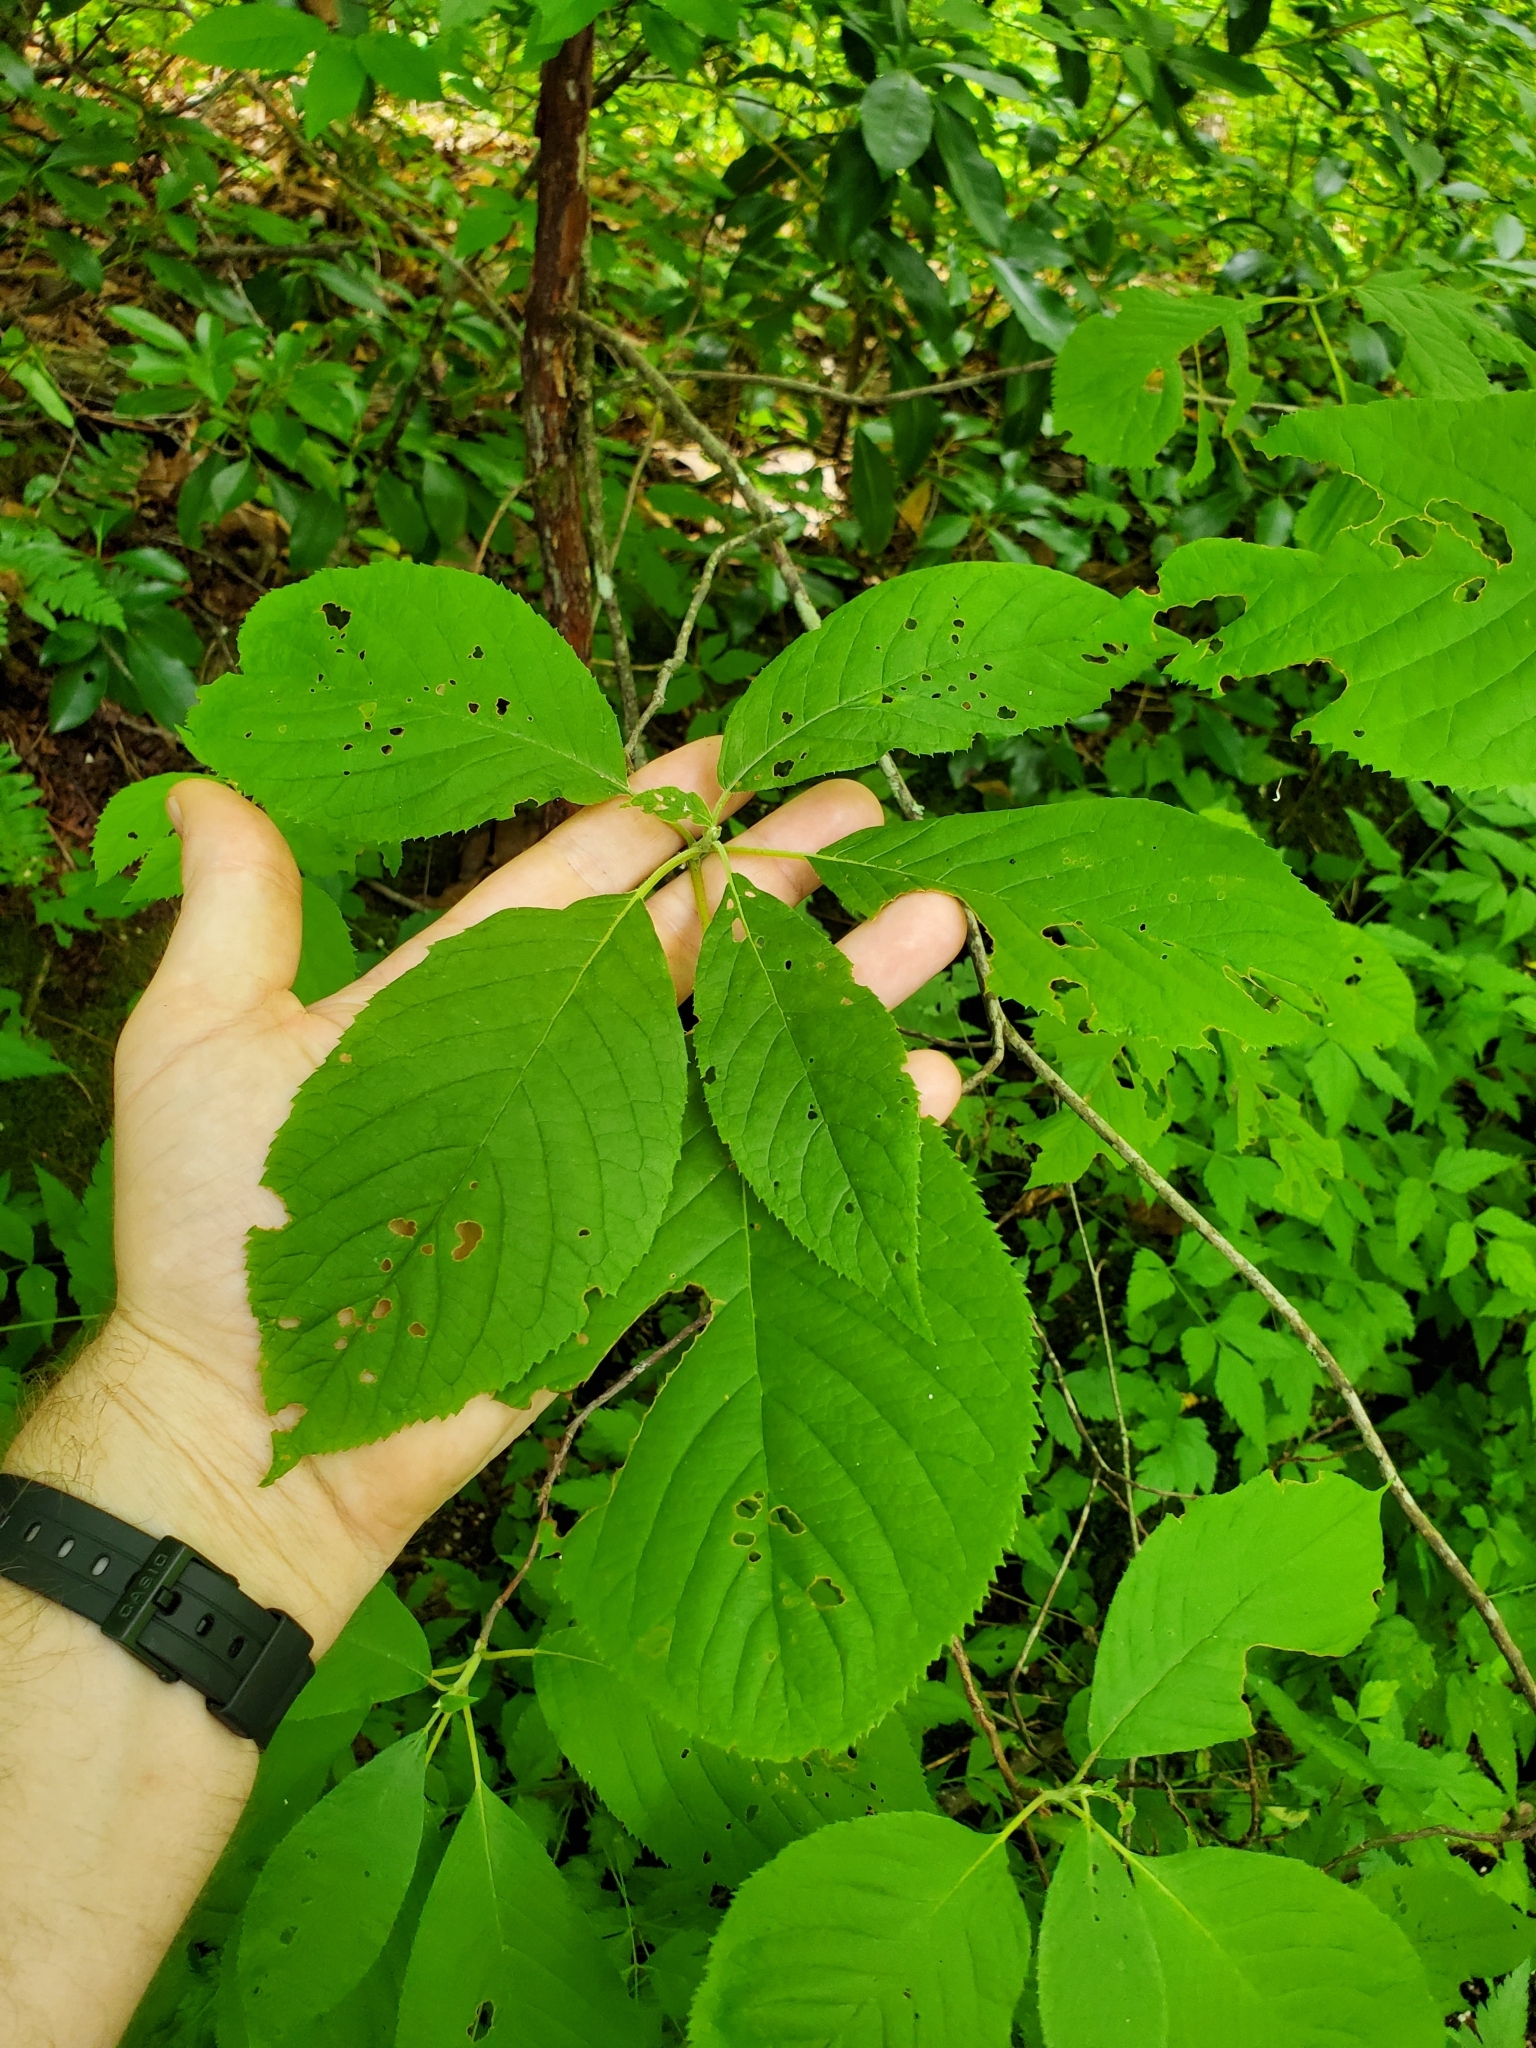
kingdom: Plantae
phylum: Tracheophyta
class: Magnoliopsida
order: Ericales
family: Clethraceae
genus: Clethra
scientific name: Clethra acuminata
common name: Mountain sweet pepperbush
